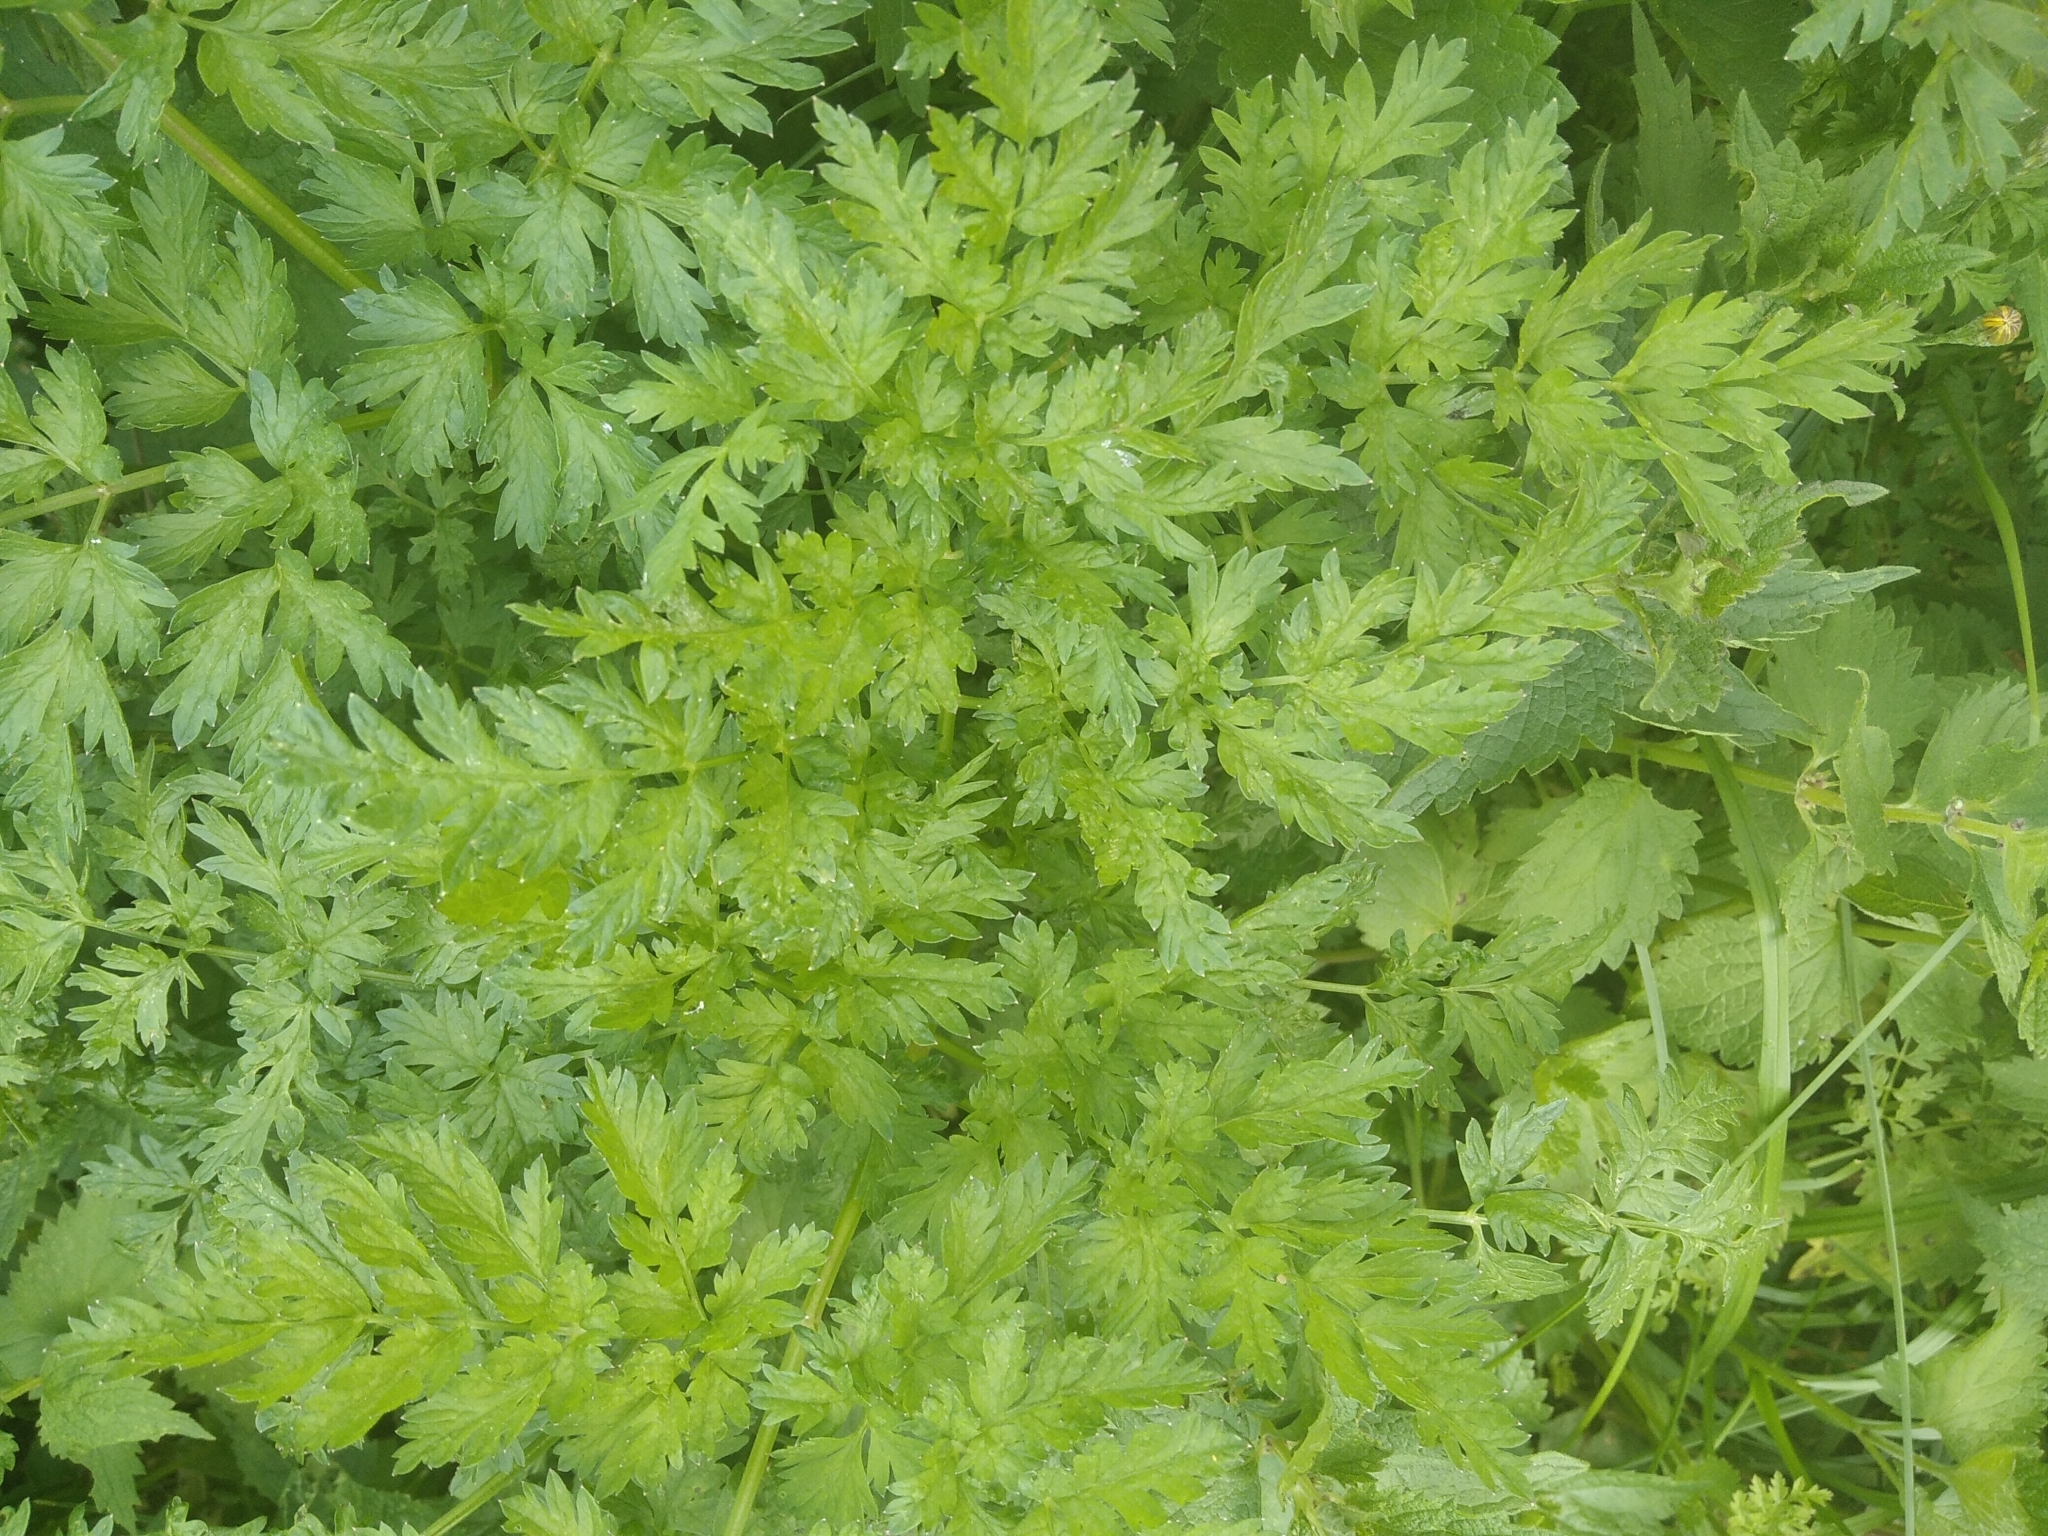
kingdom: Plantae
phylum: Tracheophyta
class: Magnoliopsida
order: Apiales
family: Apiaceae
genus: Anthriscus
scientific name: Anthriscus sylvestris
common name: Cow parsley
